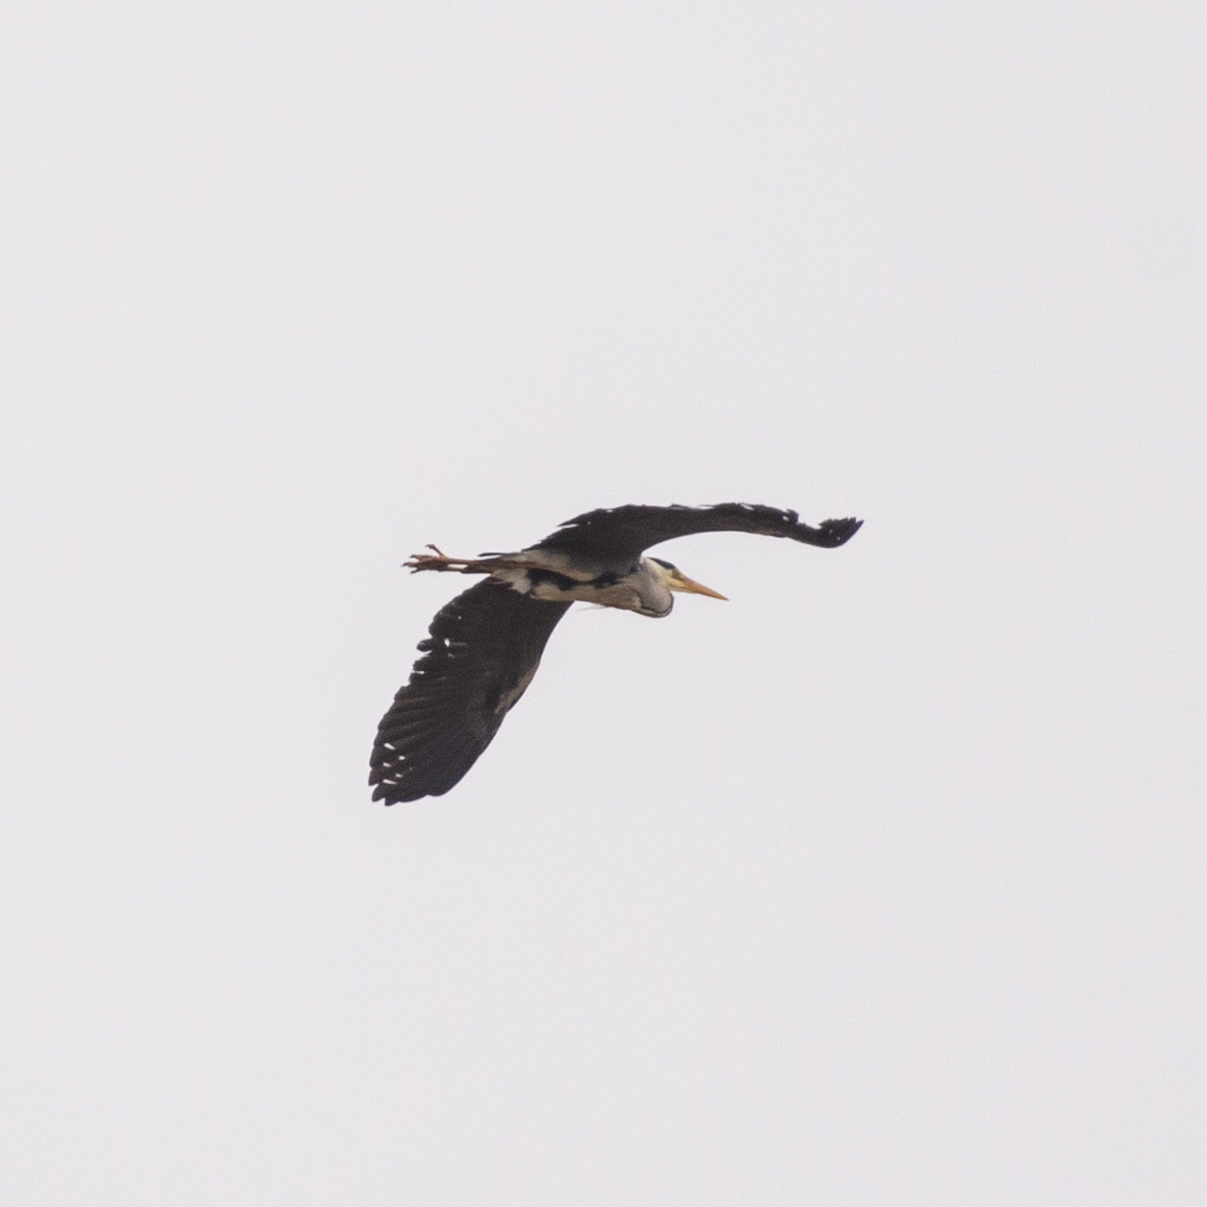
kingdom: Animalia
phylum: Chordata
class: Aves
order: Pelecaniformes
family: Ardeidae
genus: Ardea
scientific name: Ardea cinerea
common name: Grey heron
